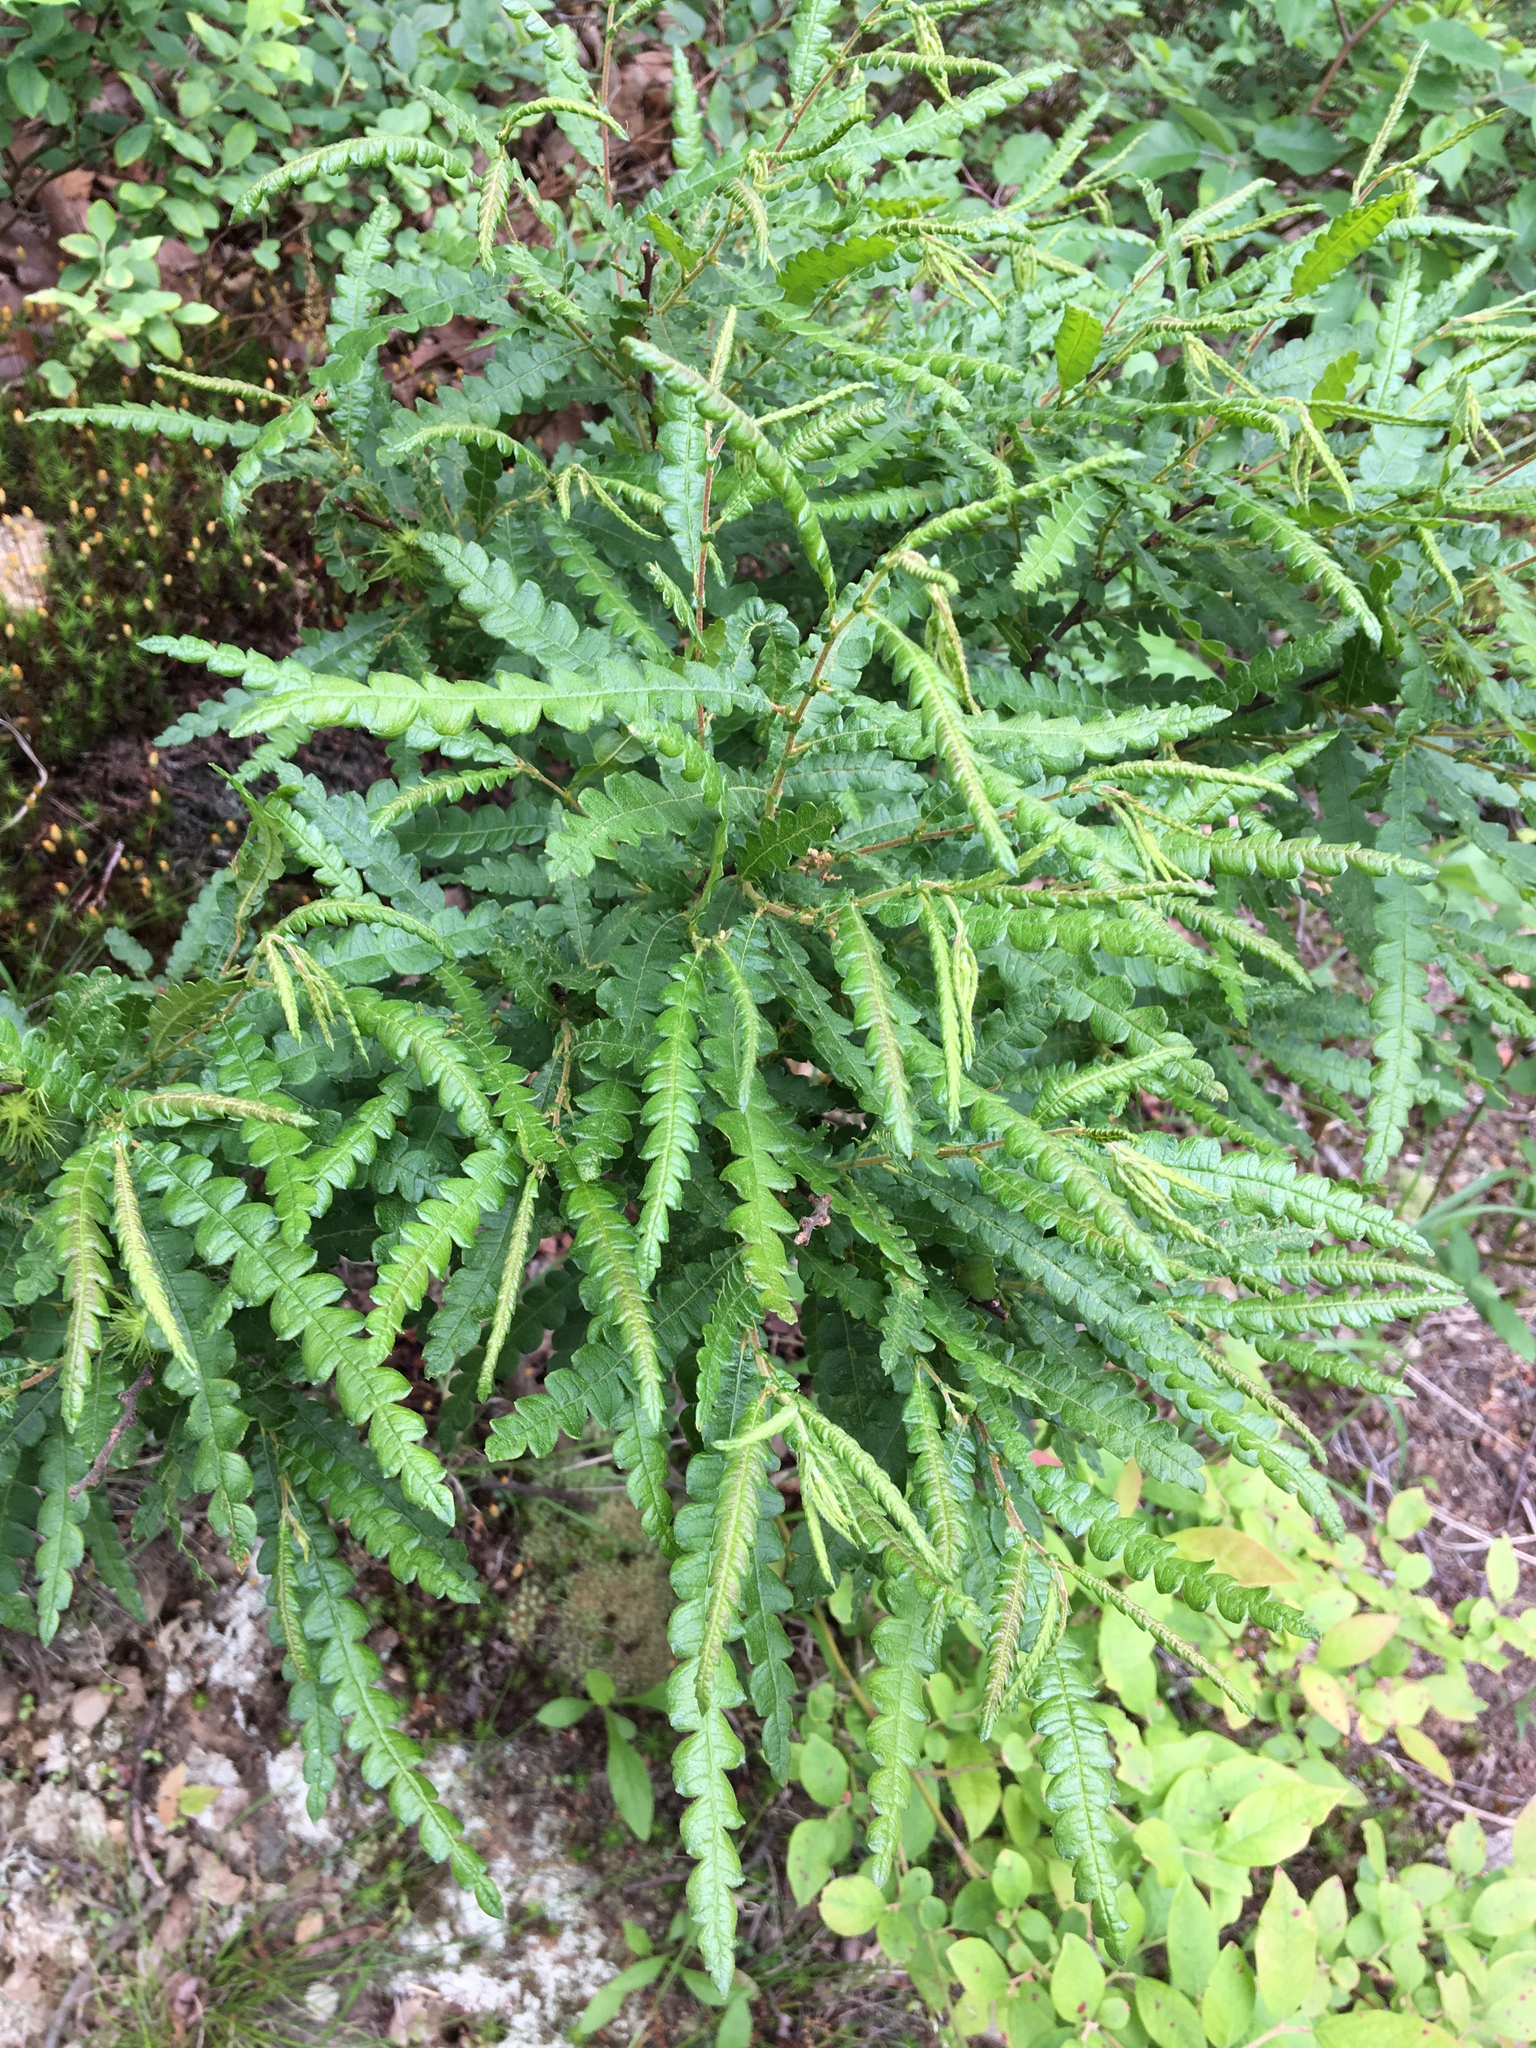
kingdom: Plantae
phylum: Tracheophyta
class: Magnoliopsida
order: Fagales
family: Myricaceae
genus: Comptonia
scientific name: Comptonia peregrina
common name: Sweet-fern
